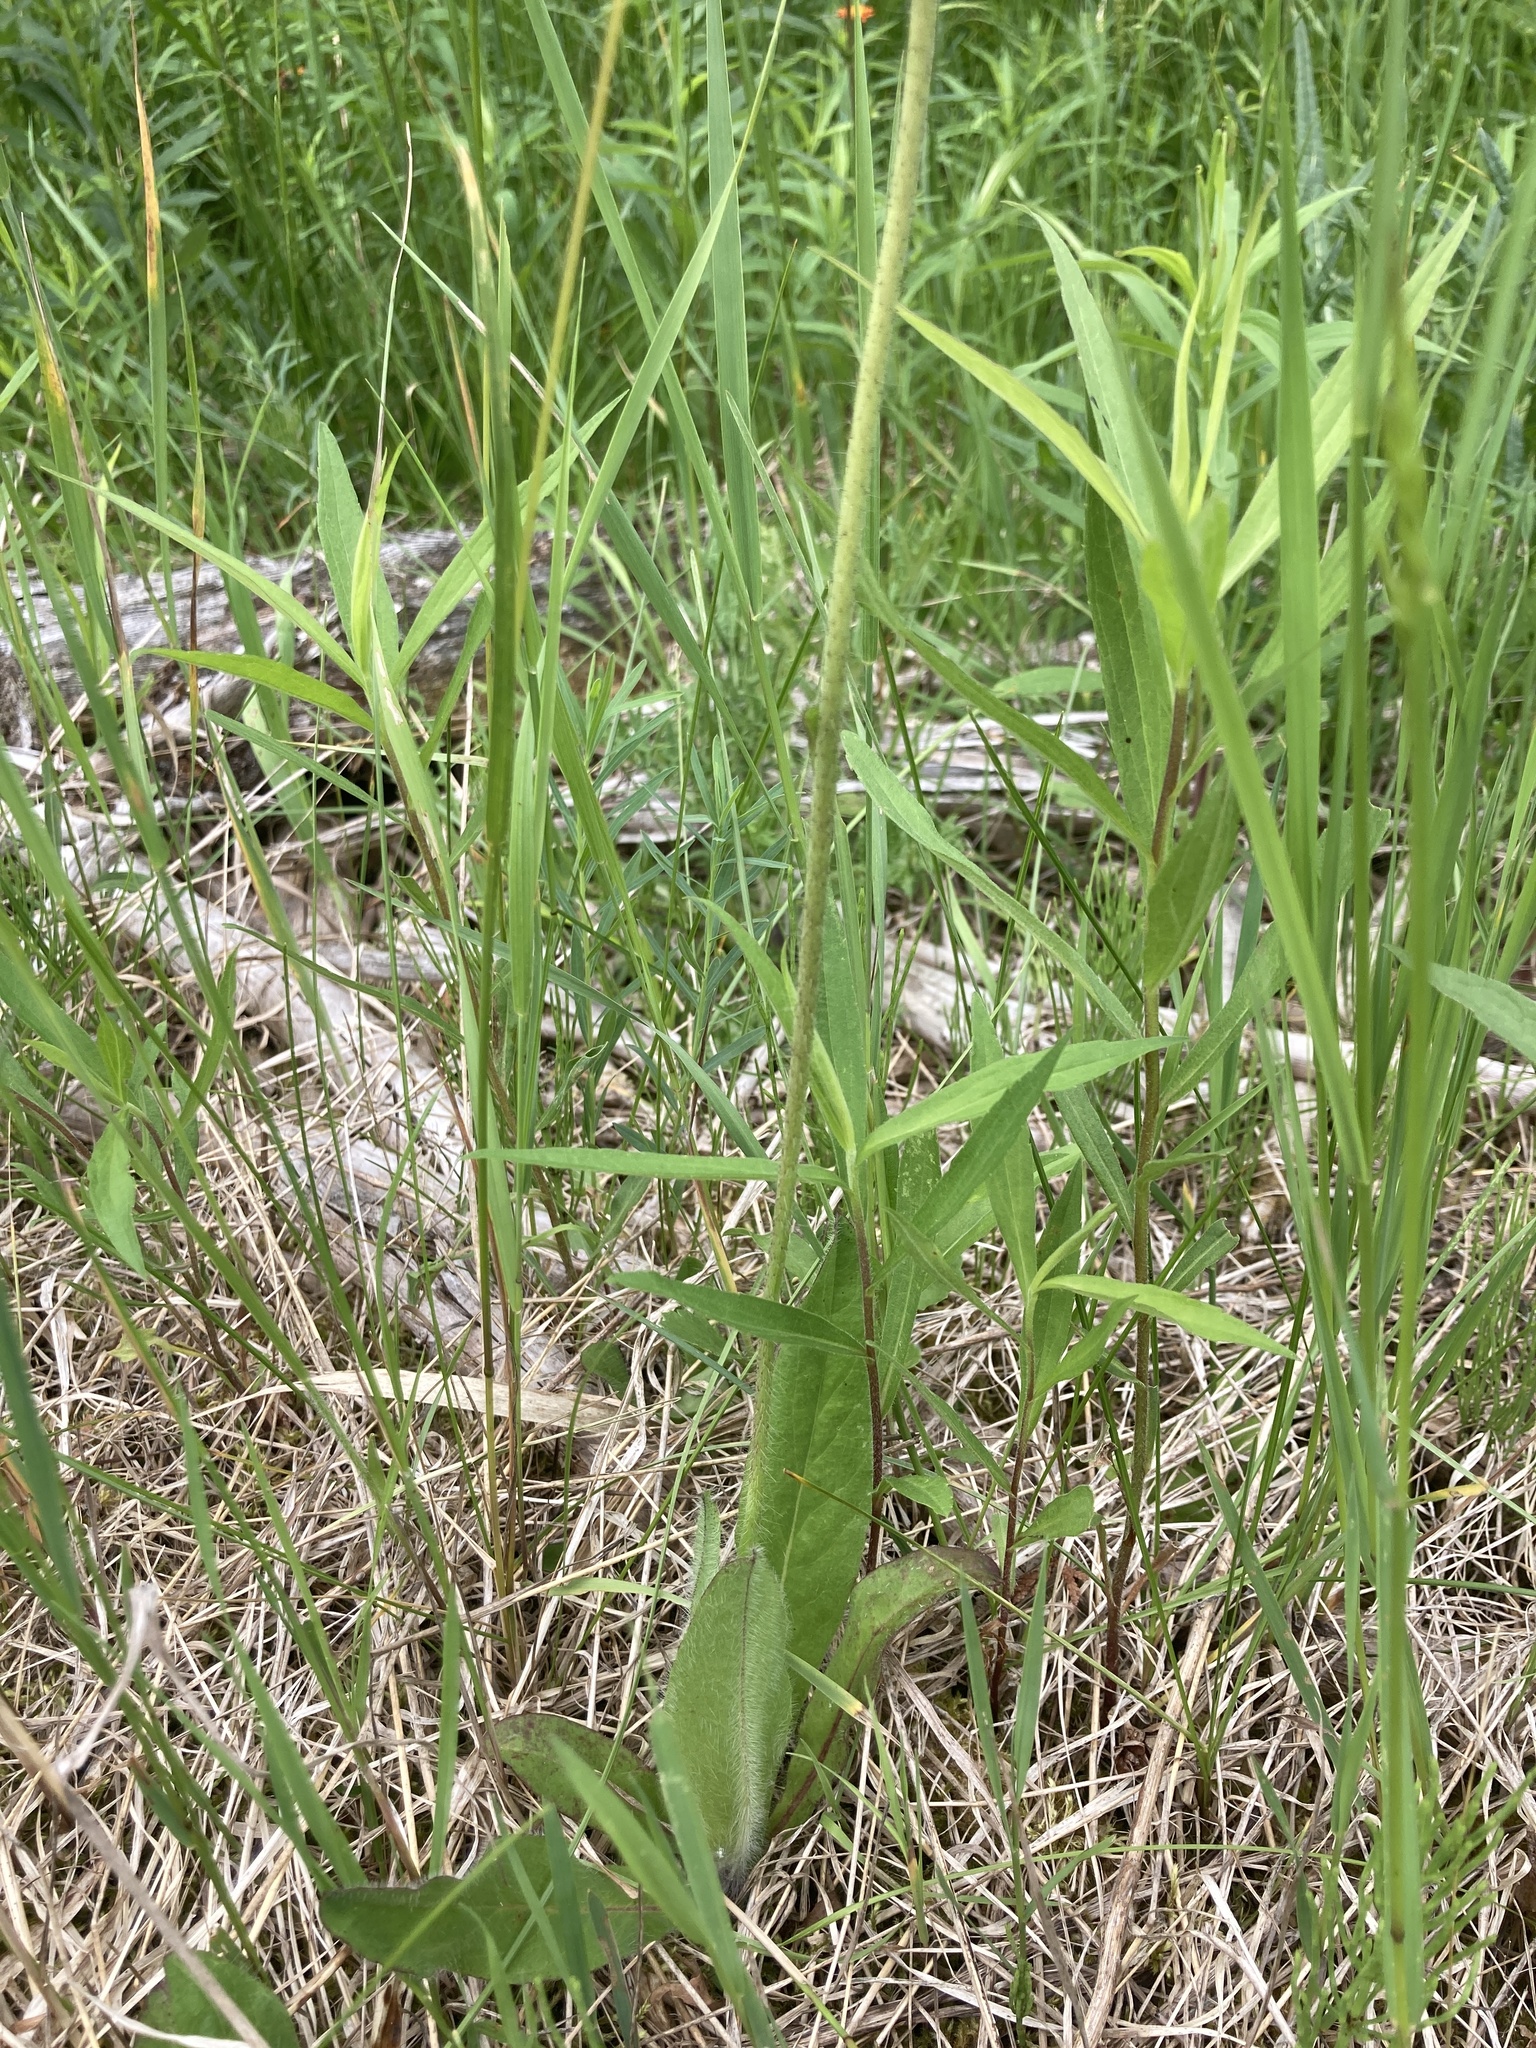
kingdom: Plantae
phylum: Tracheophyta
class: Magnoliopsida
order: Asterales
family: Asteraceae
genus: Pilosella
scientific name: Pilosella aurantiaca
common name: Fox-and-cubs
